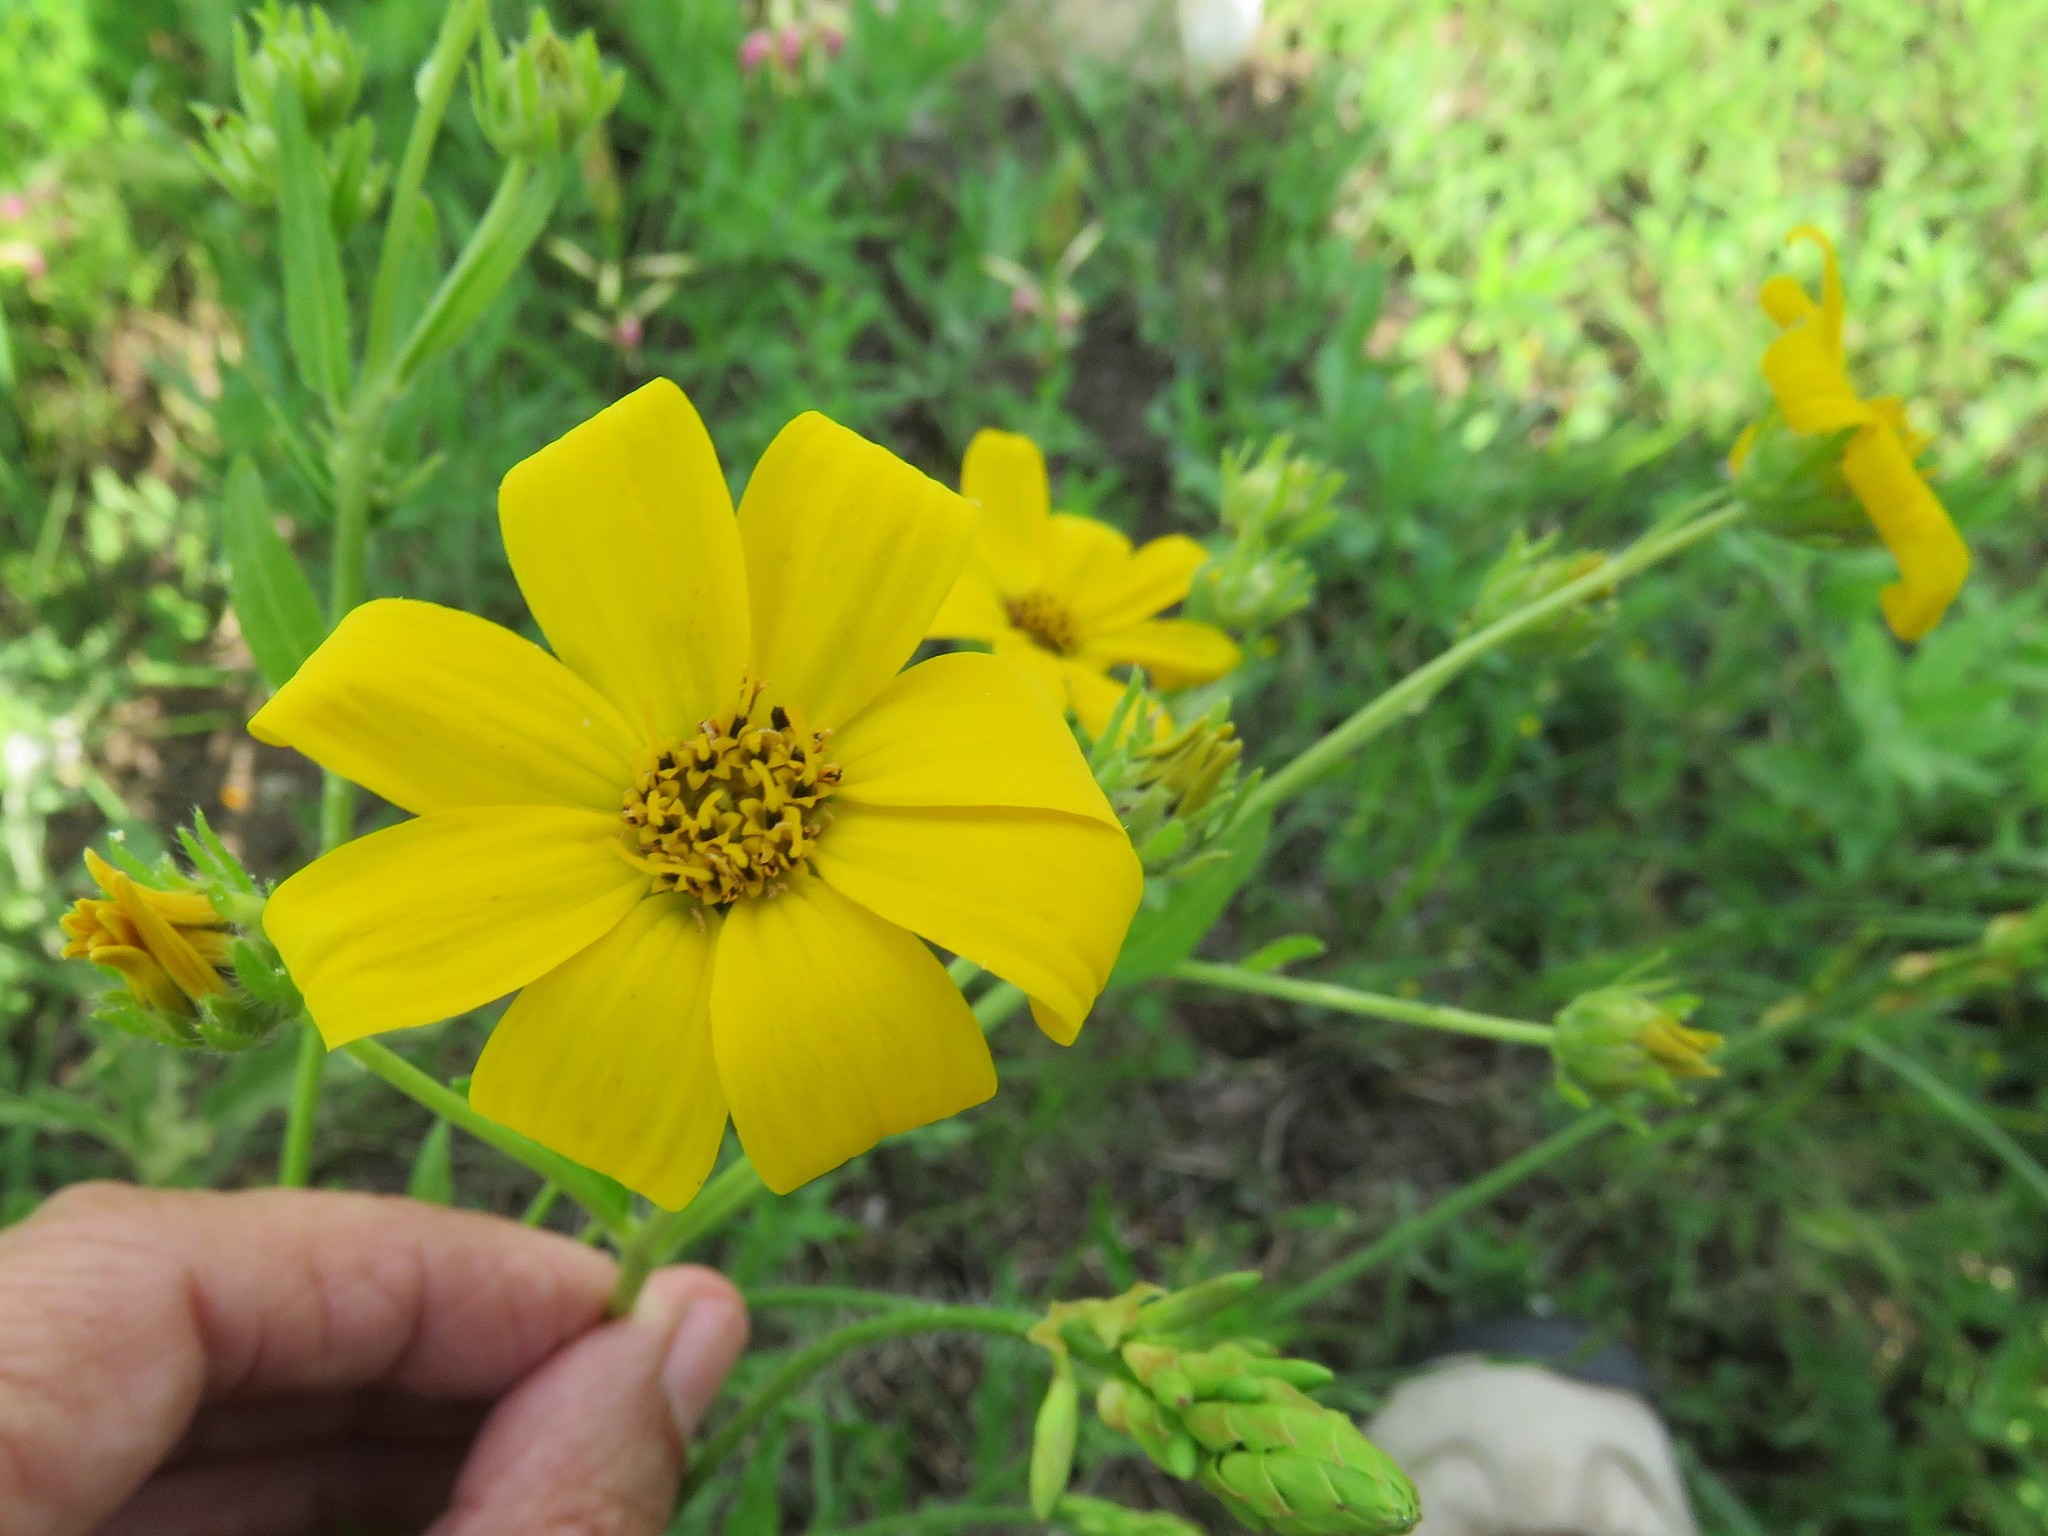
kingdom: Plantae
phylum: Tracheophyta
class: Magnoliopsida
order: Asterales
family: Asteraceae
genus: Engelmannia
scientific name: Engelmannia peristenia
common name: Engelmann's daisy
